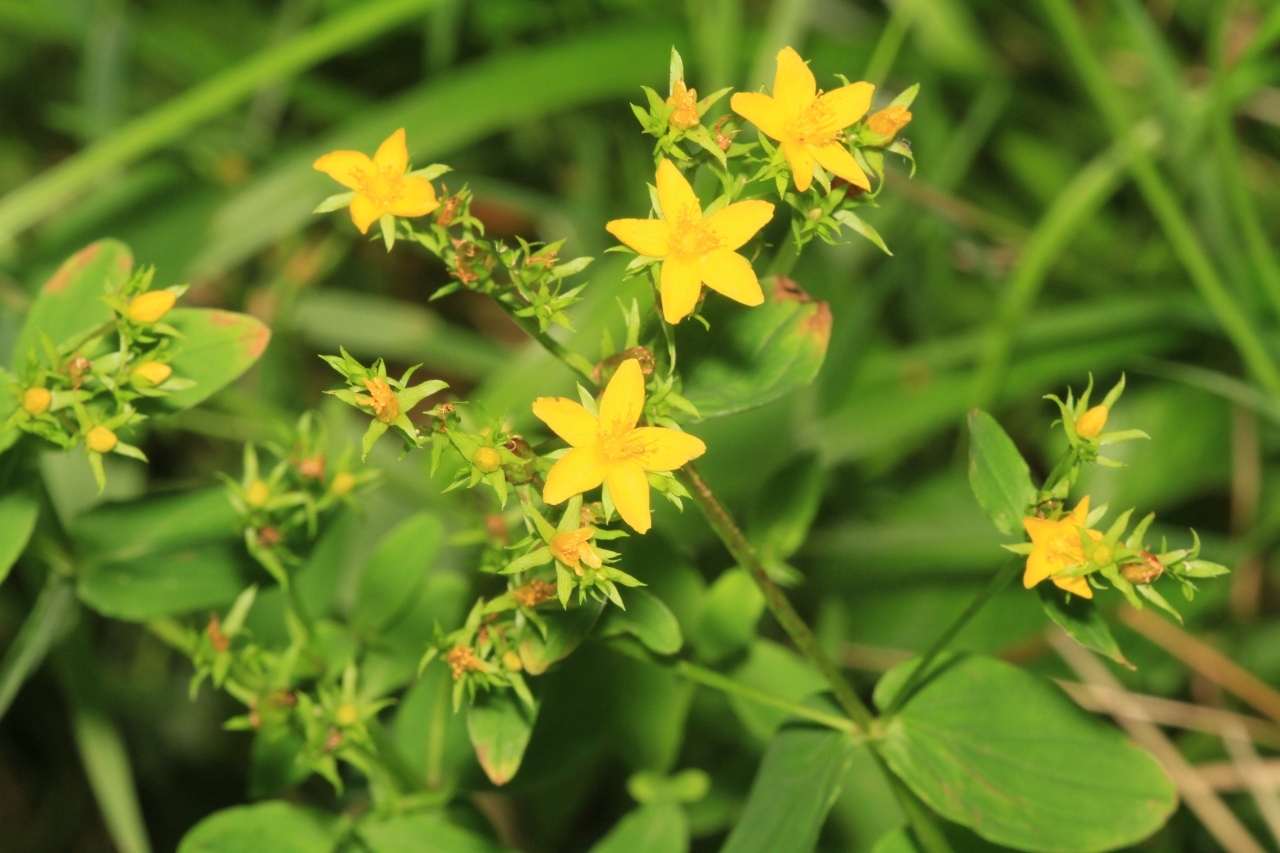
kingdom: Plantae
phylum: Tracheophyta
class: Magnoliopsida
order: Malpighiales
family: Hypericaceae
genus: Hypericum
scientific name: Hypericum tetrapterum
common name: Square-stalked st. john's-wort
